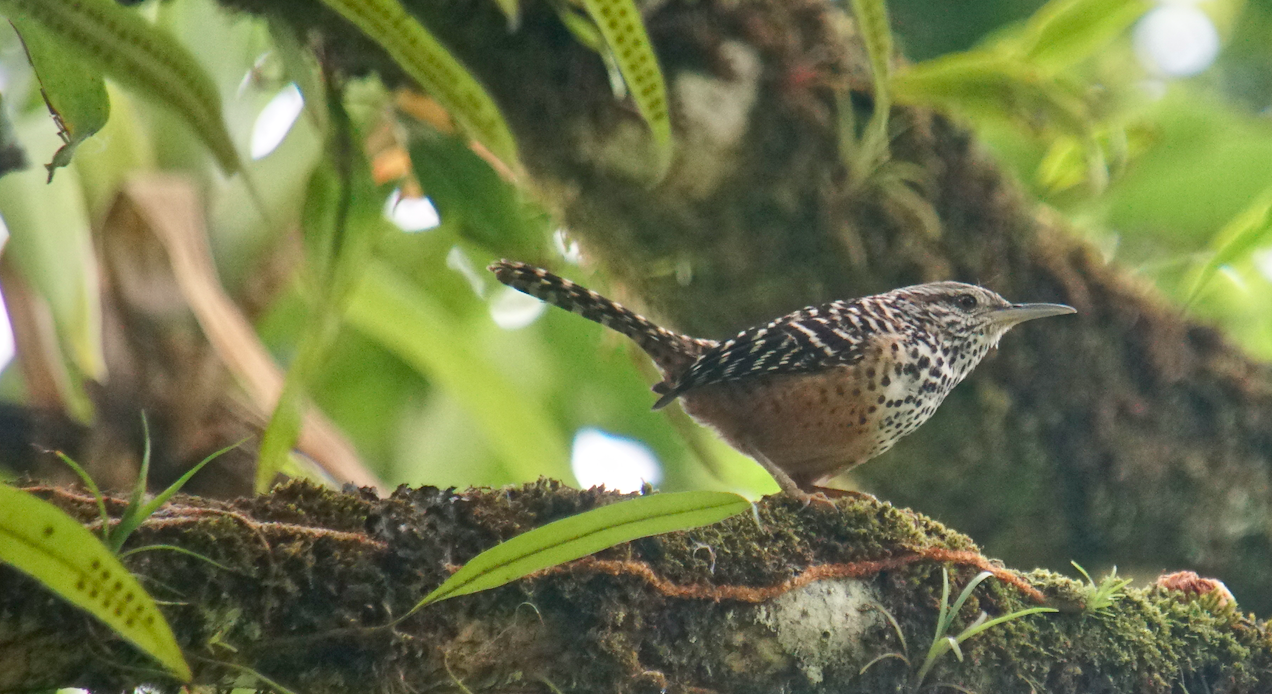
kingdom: Animalia
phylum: Chordata
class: Aves
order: Passeriformes
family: Troglodytidae
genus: Campylorhynchus
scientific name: Campylorhynchus zonatus
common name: Band-backed wren
